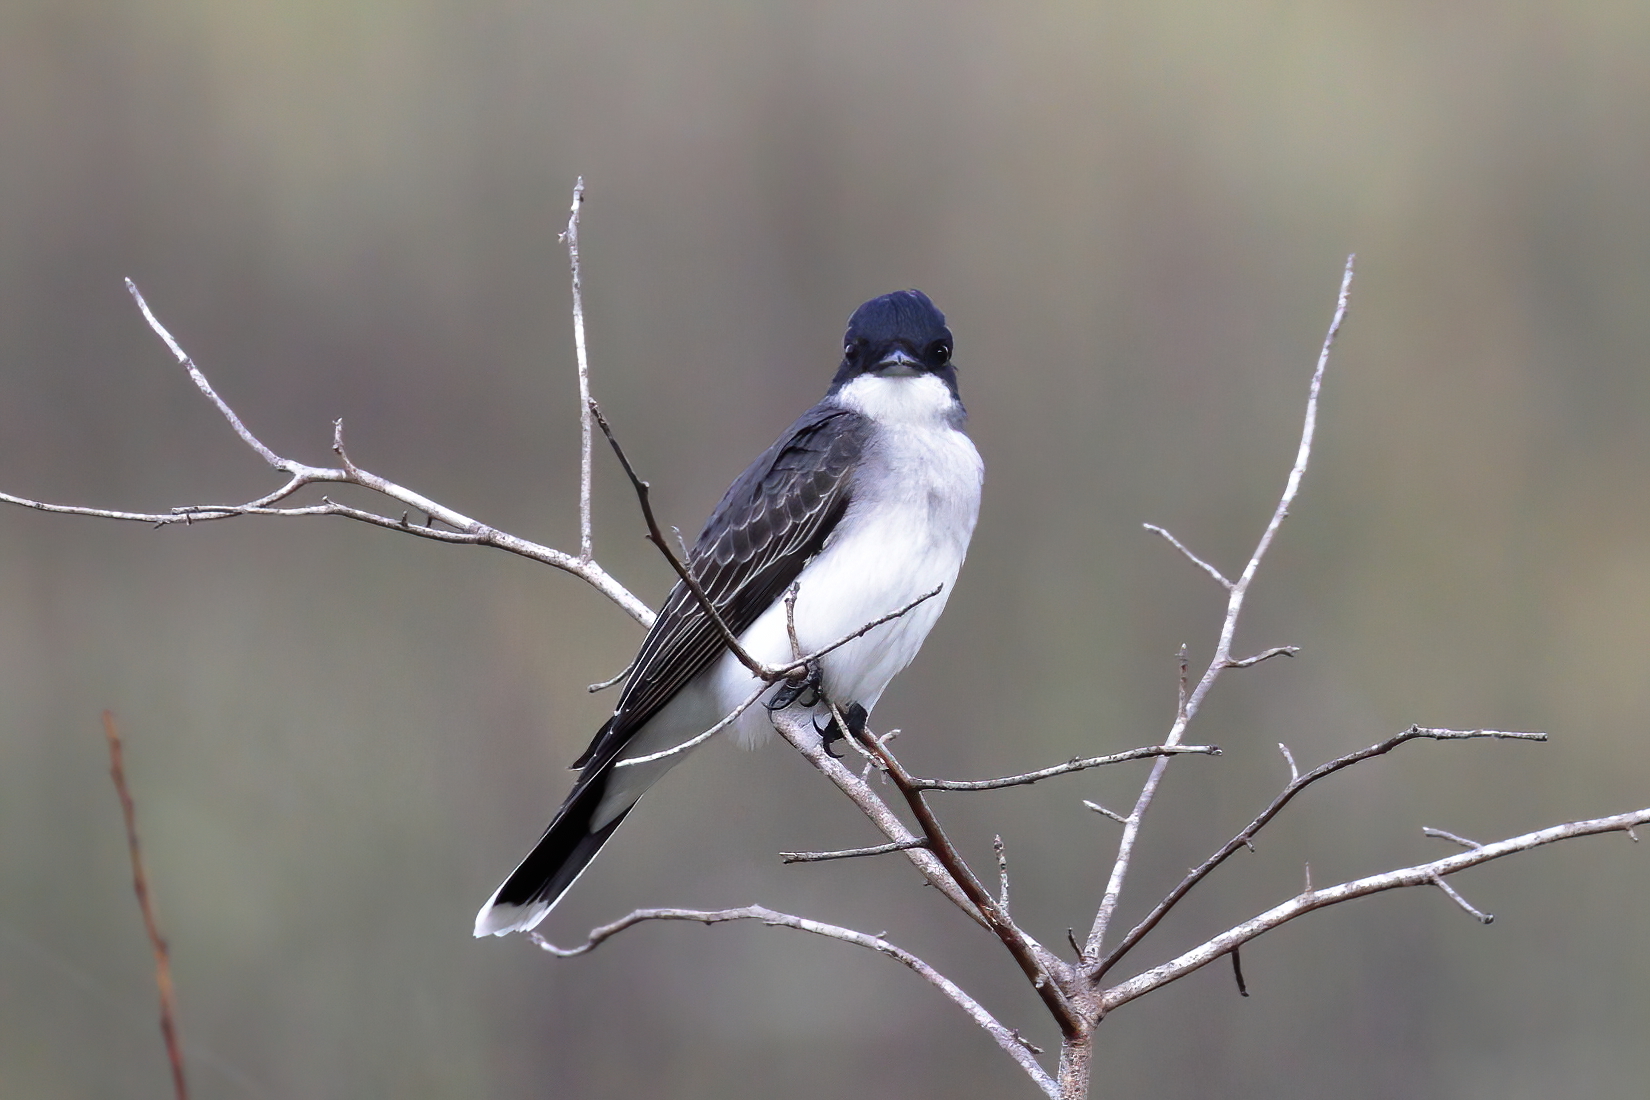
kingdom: Animalia
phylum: Chordata
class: Aves
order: Passeriformes
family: Tyrannidae
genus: Tyrannus
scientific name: Tyrannus tyrannus
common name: Eastern kingbird
